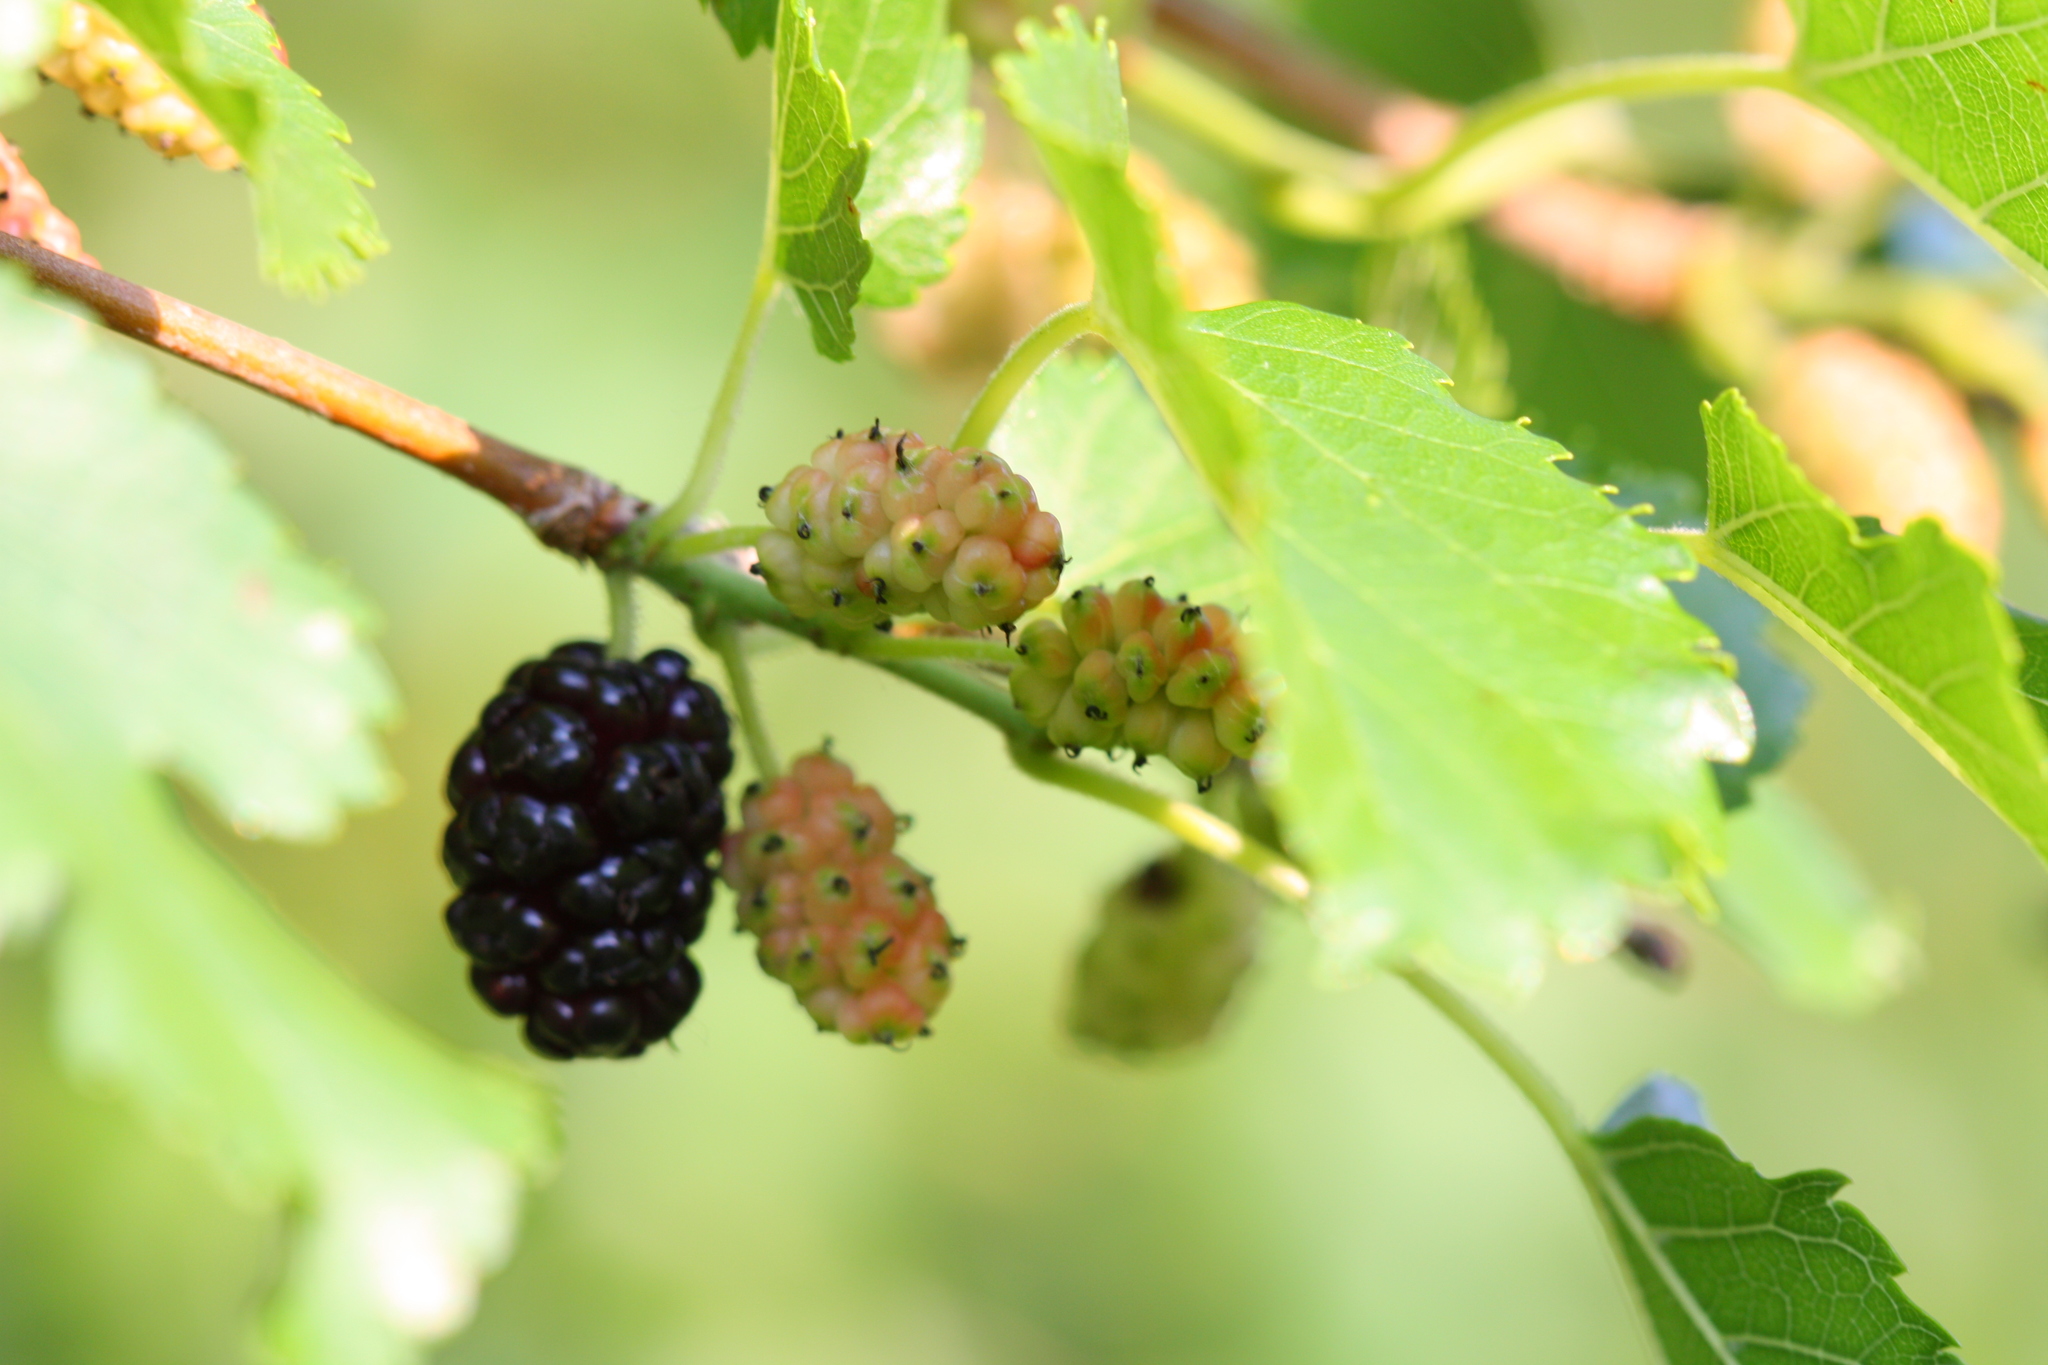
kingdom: Plantae
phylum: Tracheophyta
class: Magnoliopsida
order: Rosales
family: Moraceae
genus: Morus
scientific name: Morus alba
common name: White mulberry
